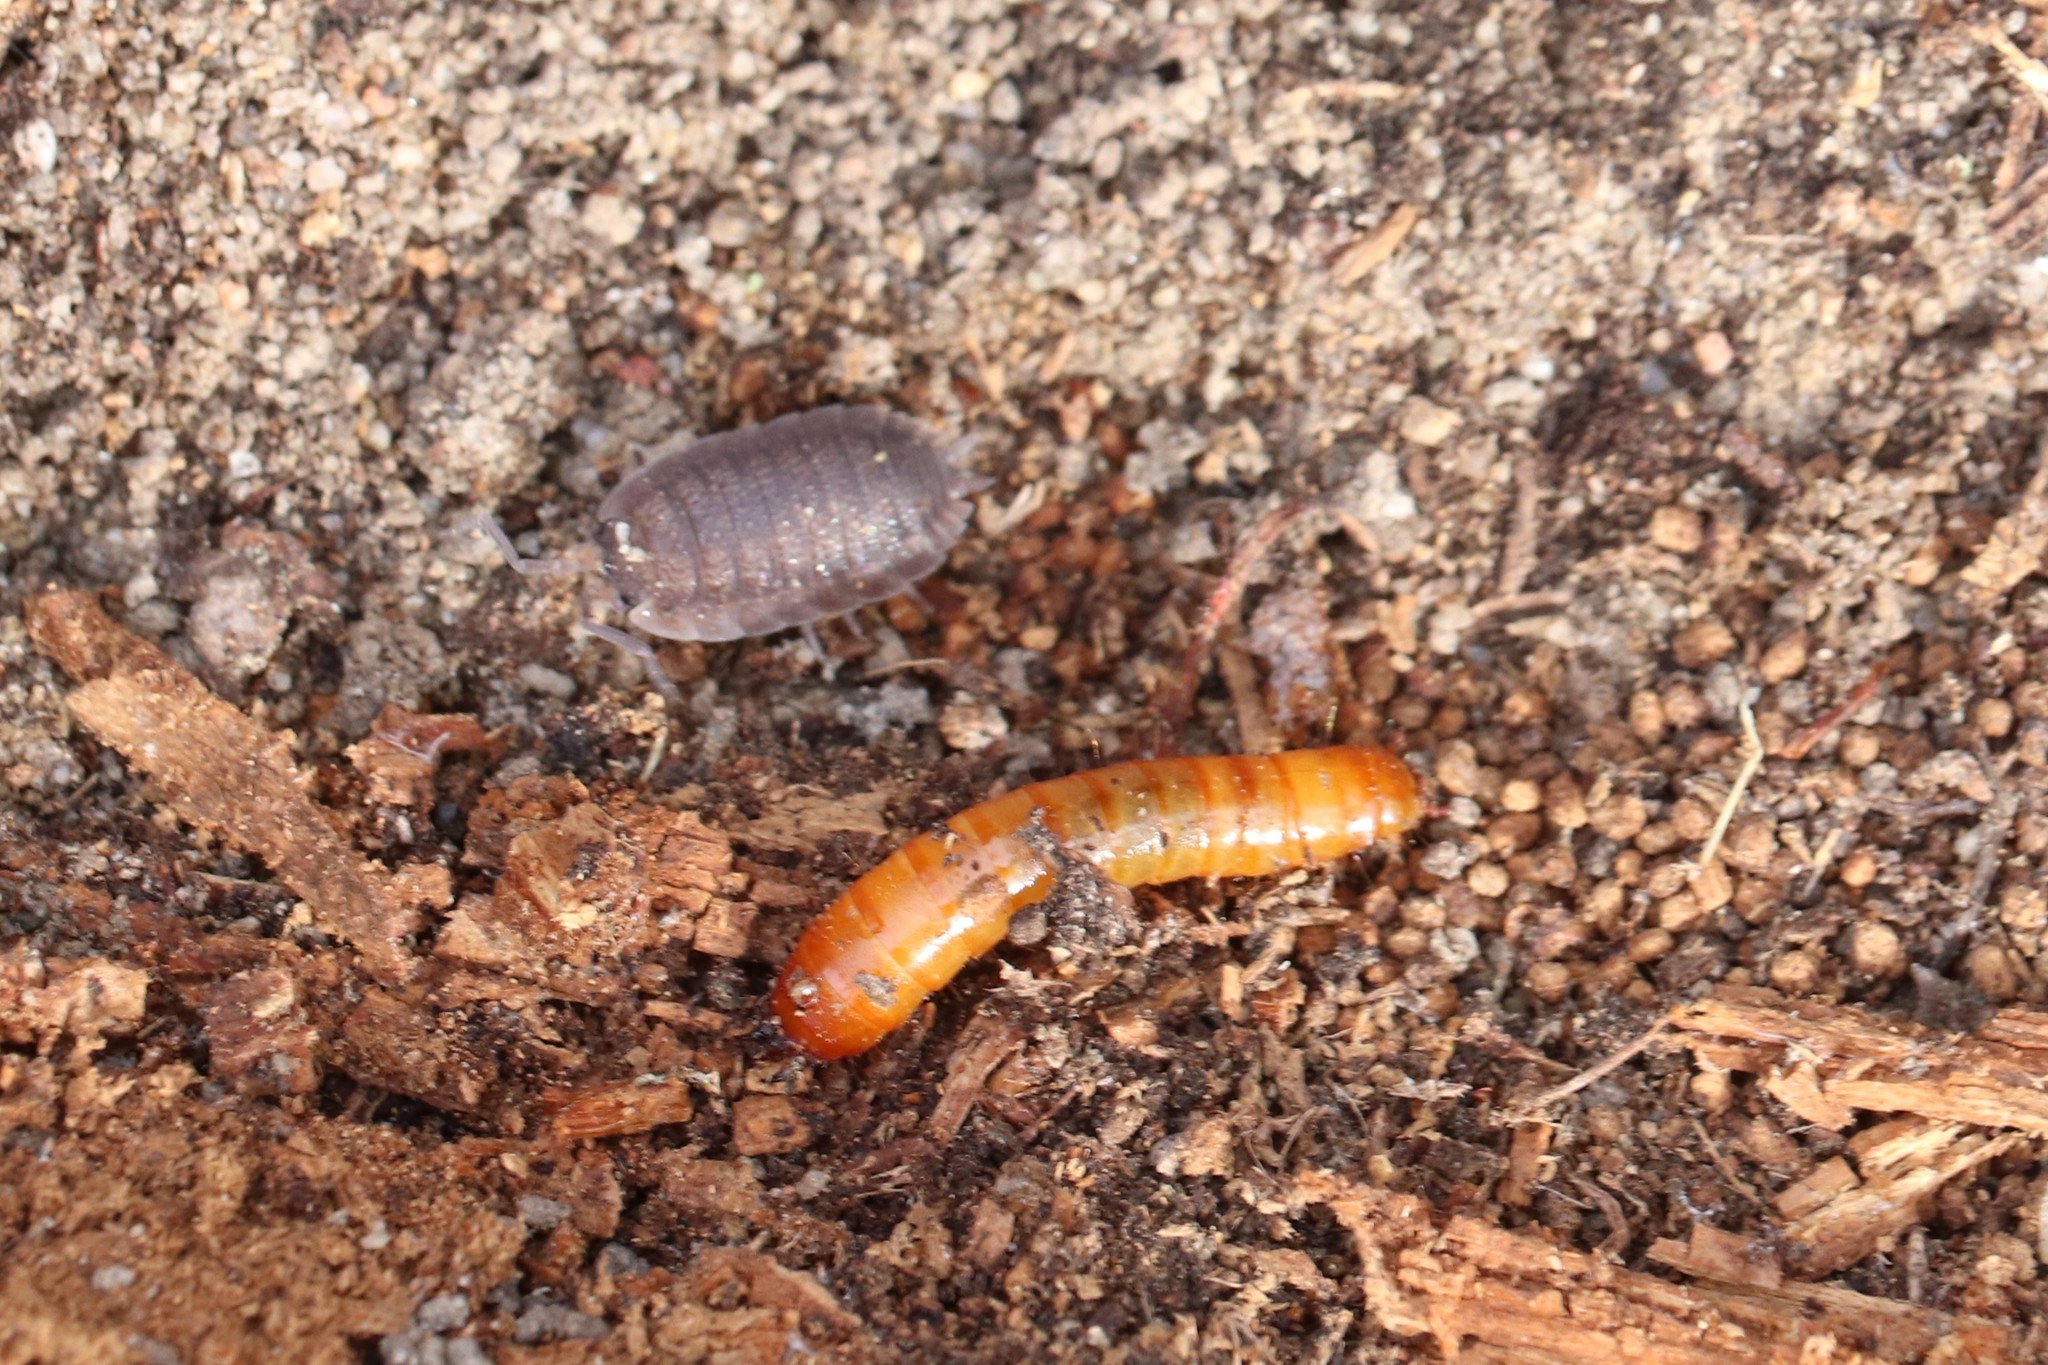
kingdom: Animalia
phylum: Arthropoda
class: Malacostraca
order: Isopoda
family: Porcellionidae
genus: Porcellio
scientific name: Porcellio scaber
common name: Common rough woodlouse
